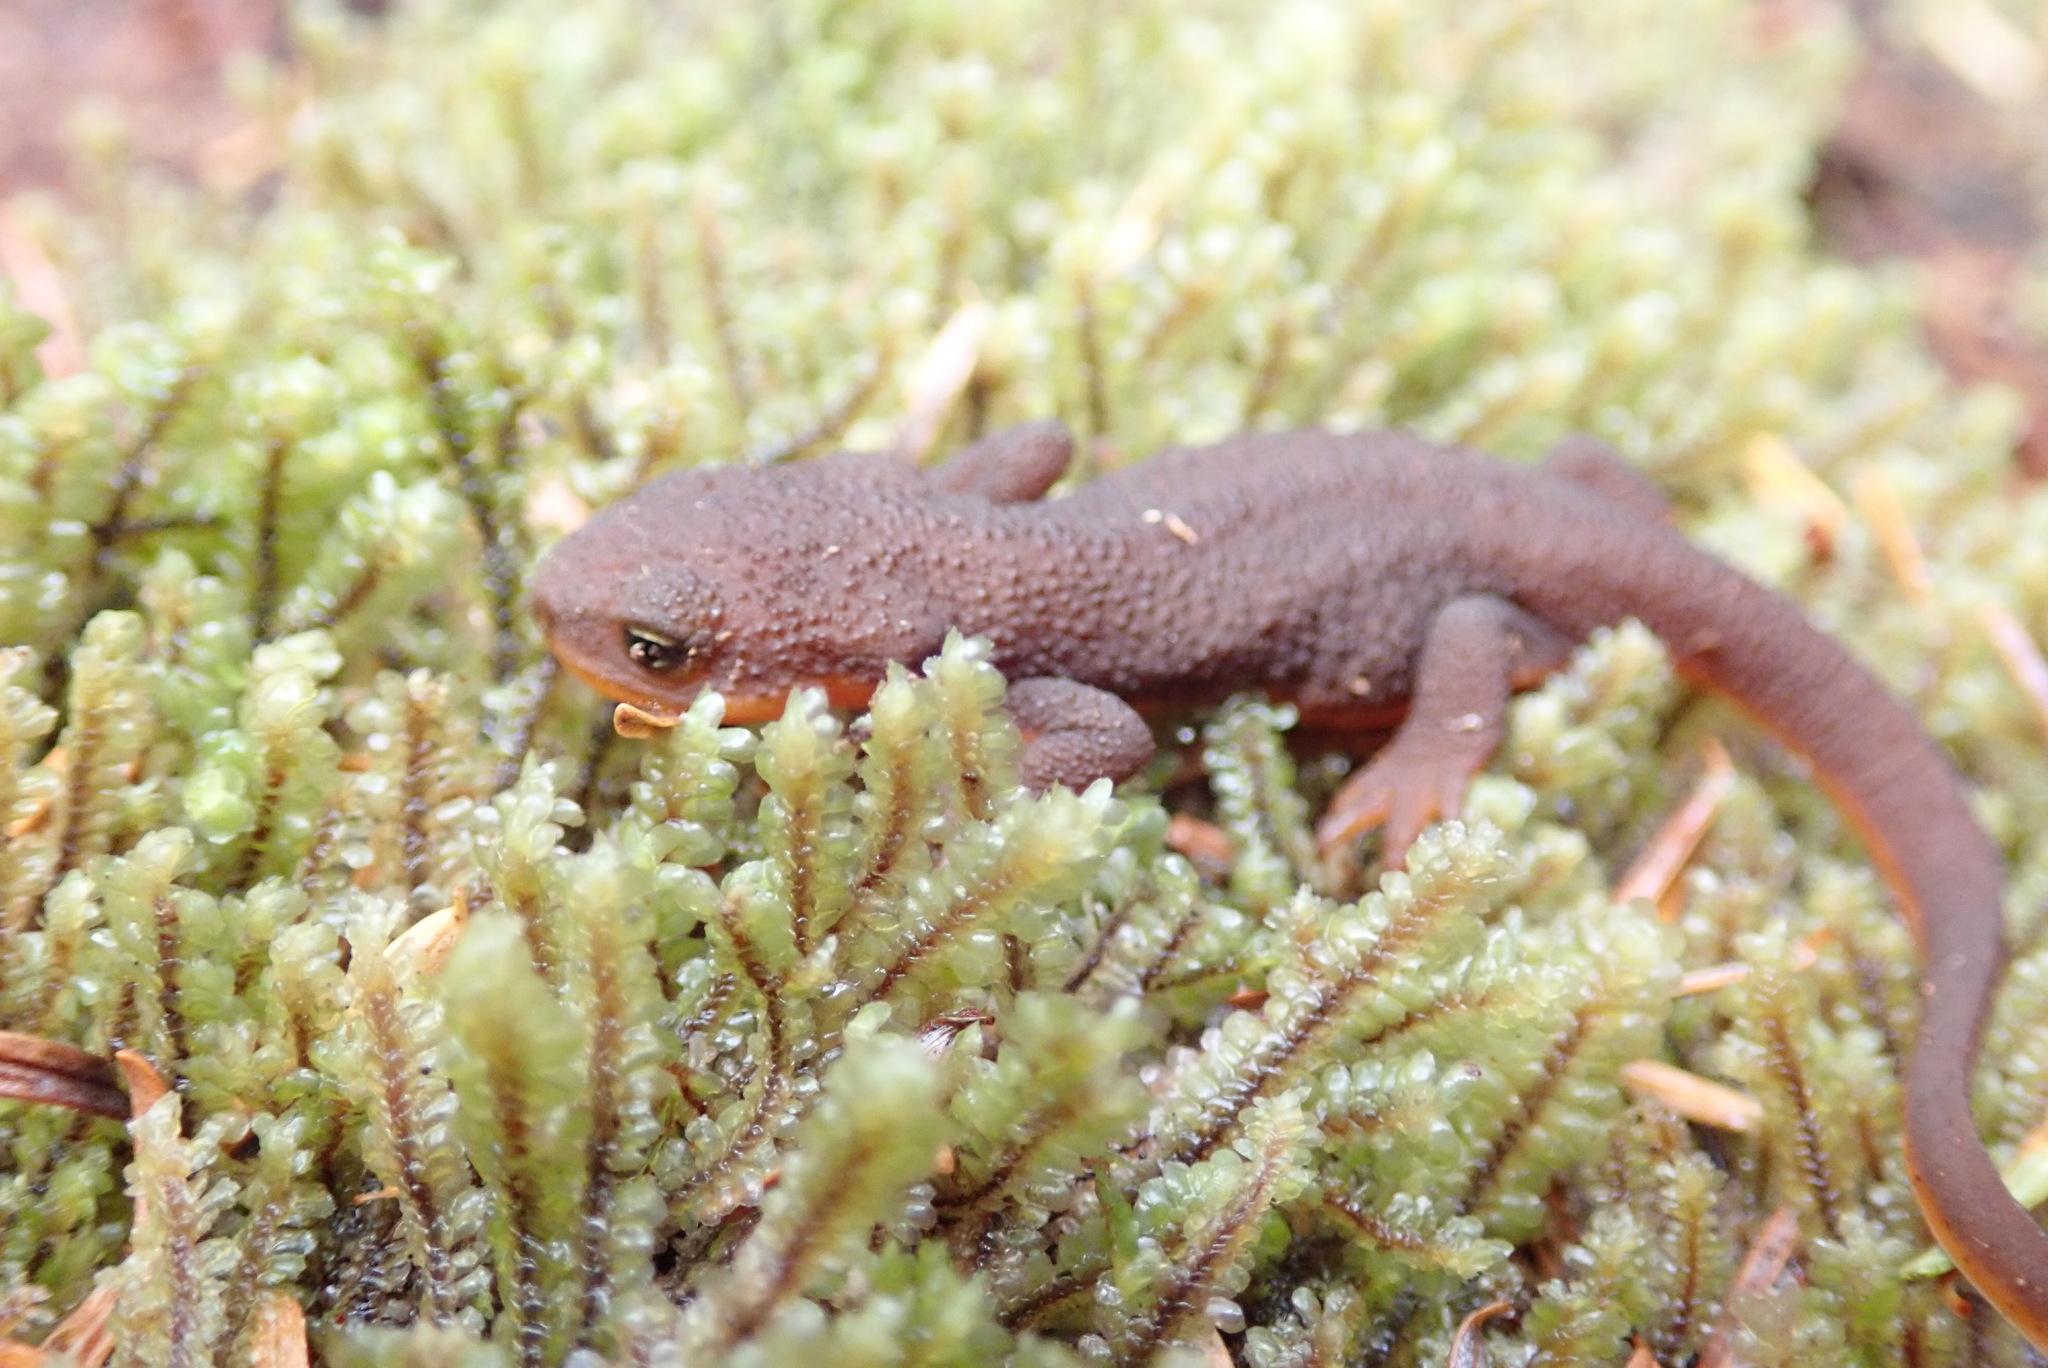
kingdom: Animalia
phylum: Chordata
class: Amphibia
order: Caudata
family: Salamandridae
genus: Taricha
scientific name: Taricha granulosa
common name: Roughskin newt
